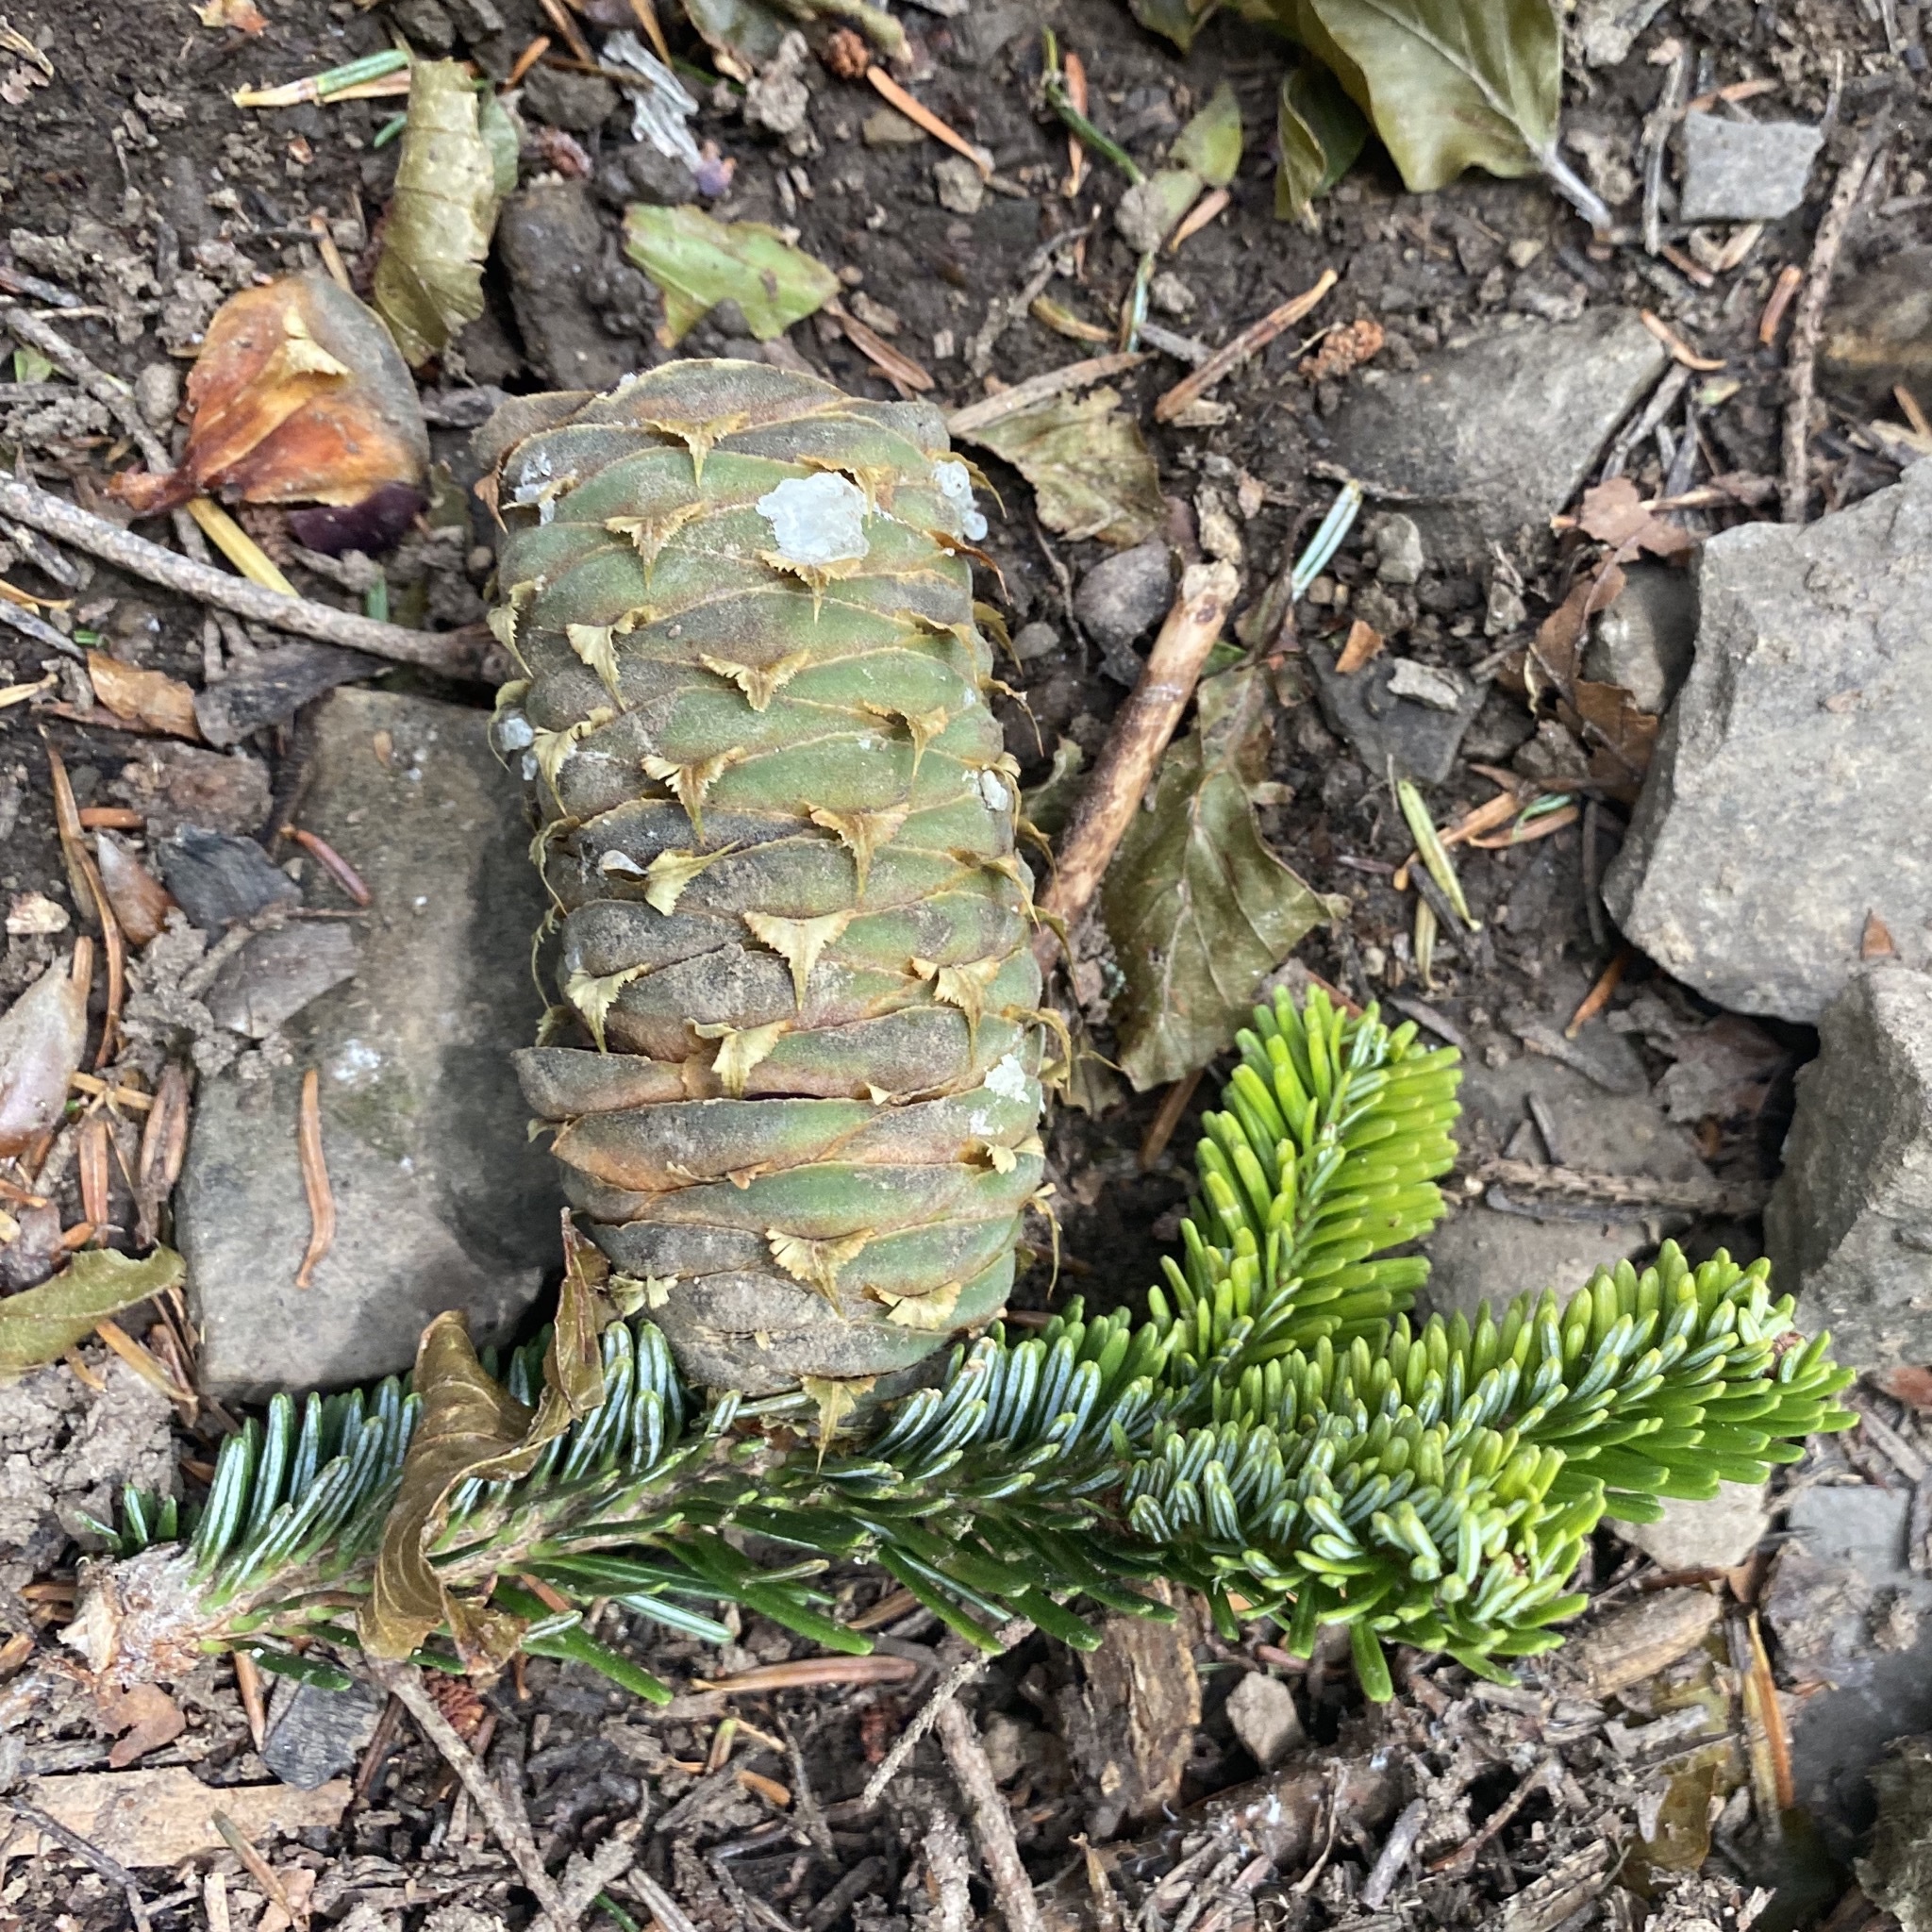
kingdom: Plantae
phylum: Tracheophyta
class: Pinopsida
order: Pinales
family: Pinaceae
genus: Abies
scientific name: Abies alba
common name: Silver fir
